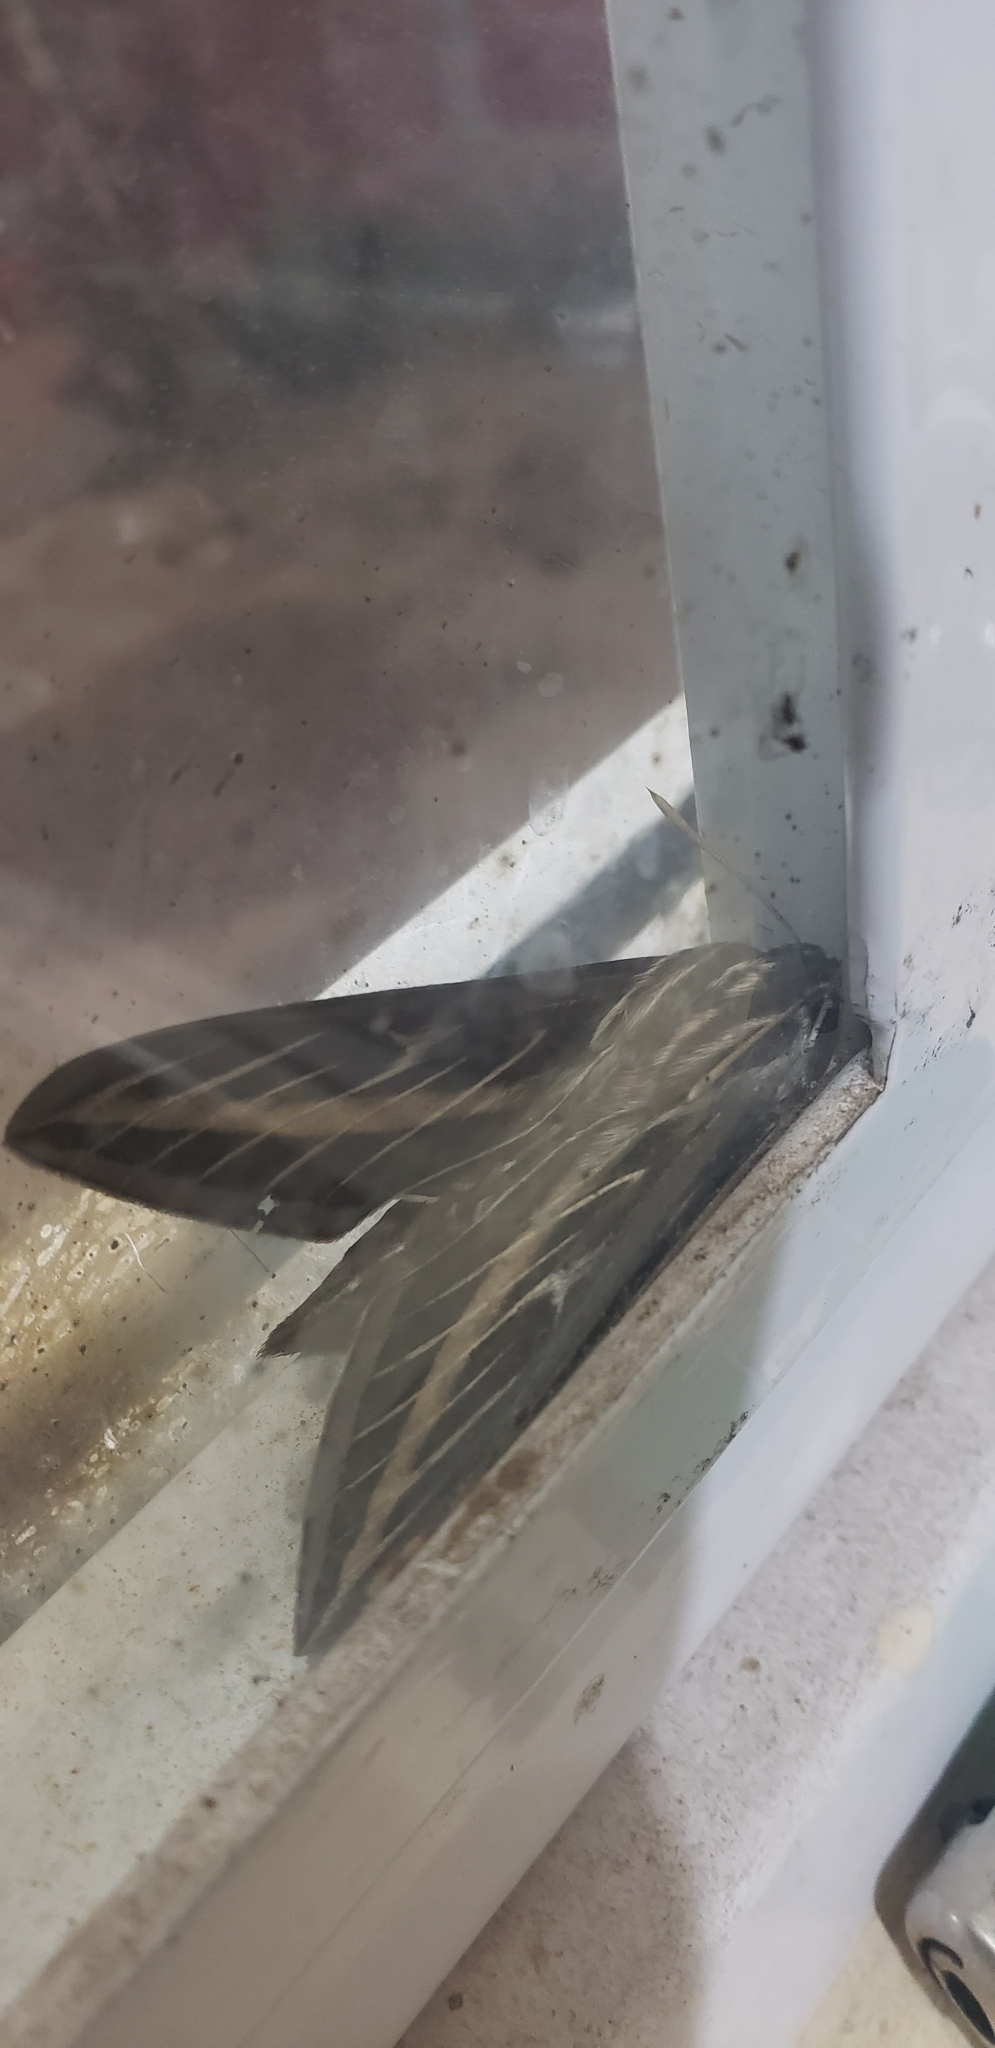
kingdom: Animalia
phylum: Arthropoda
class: Insecta
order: Lepidoptera
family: Sphingidae
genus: Hyles
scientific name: Hyles lineata
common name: White-lined sphinx
